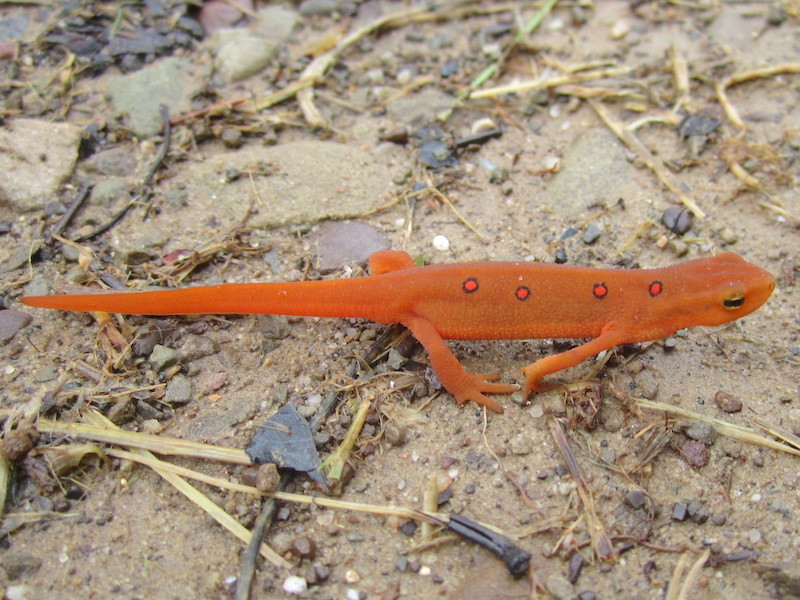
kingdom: Animalia
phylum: Chordata
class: Amphibia
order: Caudata
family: Salamandridae
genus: Notophthalmus
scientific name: Notophthalmus viridescens
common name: Eastern newt
